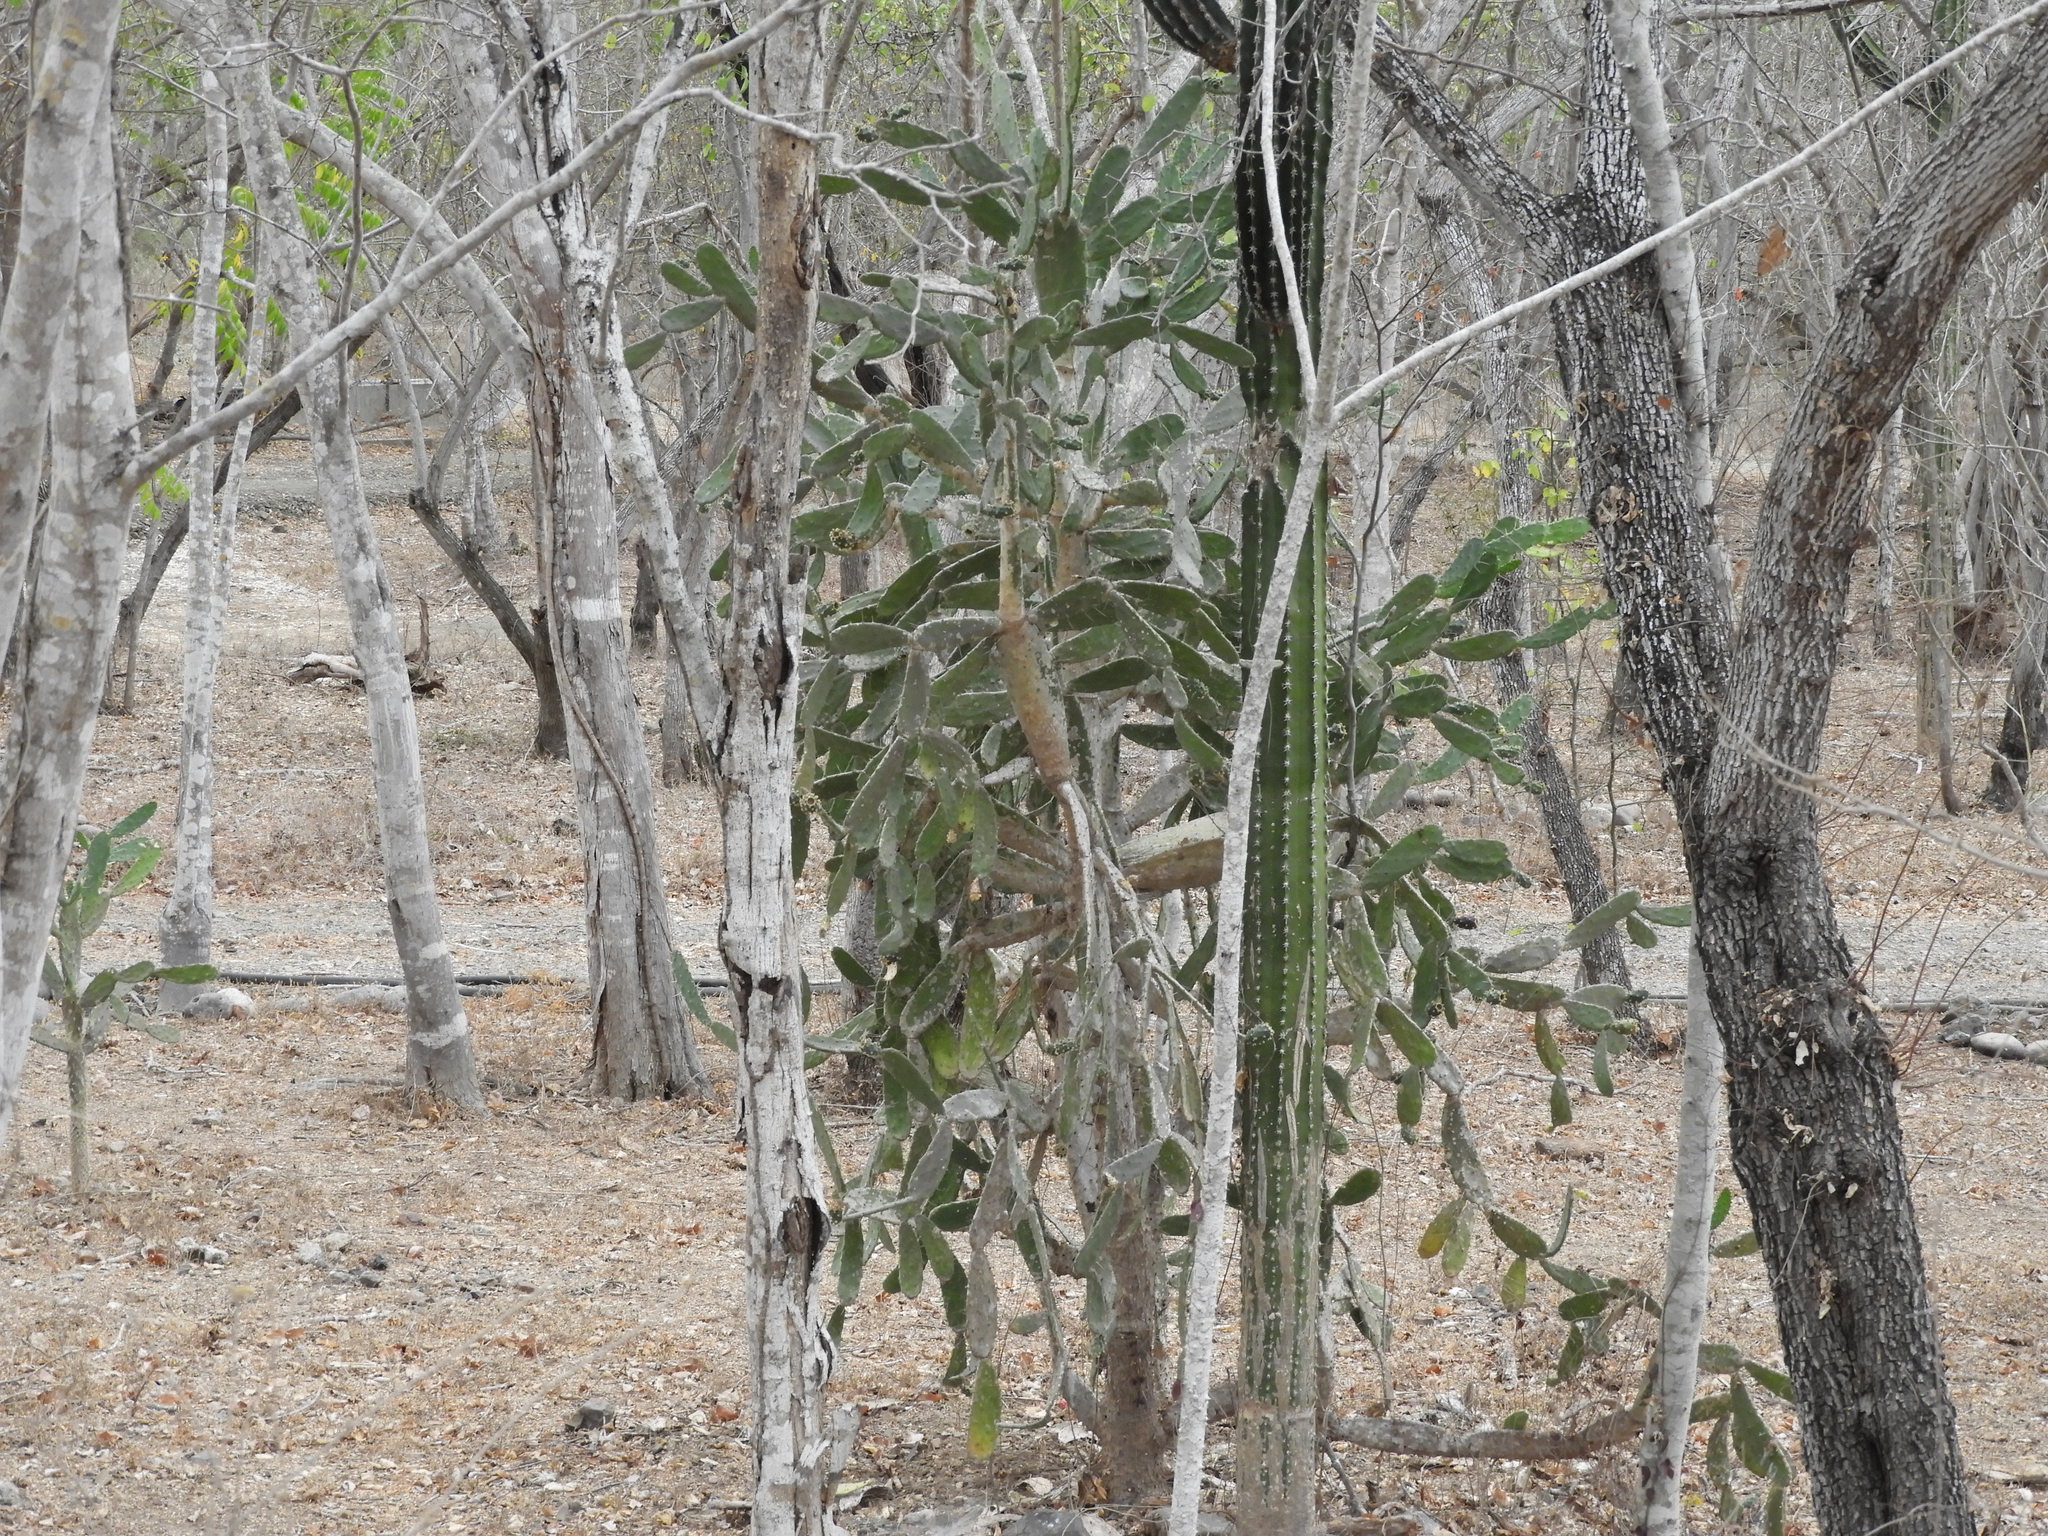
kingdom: Plantae
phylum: Tracheophyta
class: Magnoliopsida
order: Caryophyllales
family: Cactaceae
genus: Opuntia
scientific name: Opuntia hyptiacantha
